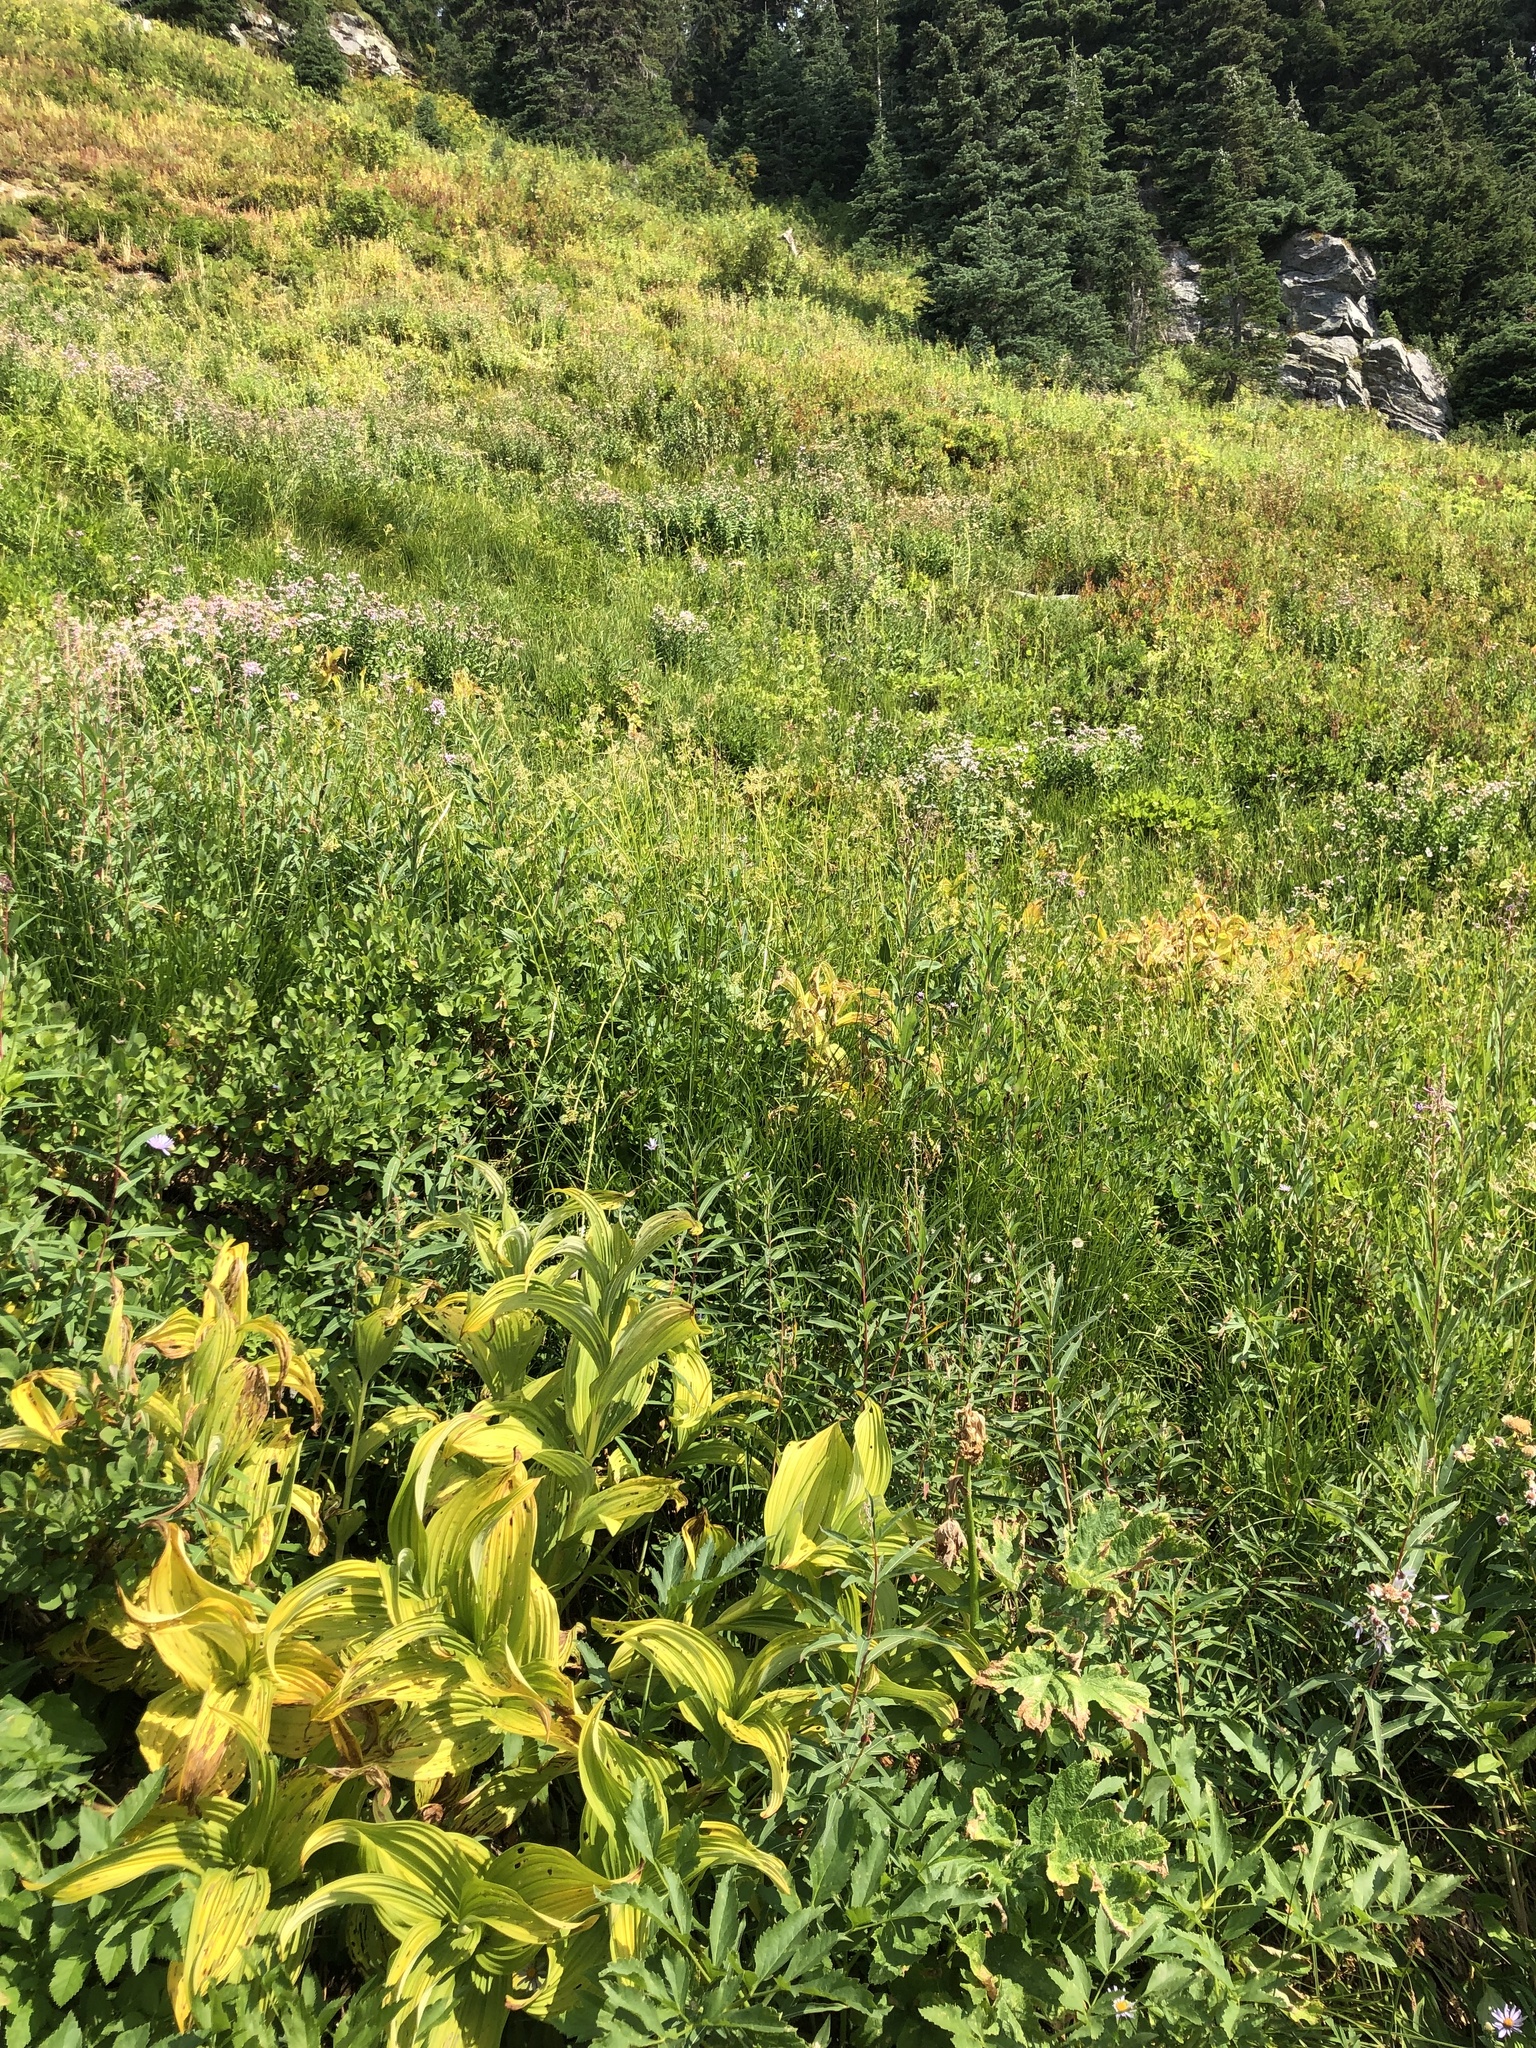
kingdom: Plantae
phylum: Tracheophyta
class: Liliopsida
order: Liliales
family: Melanthiaceae
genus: Veratrum
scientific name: Veratrum viride
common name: American false hellebore
